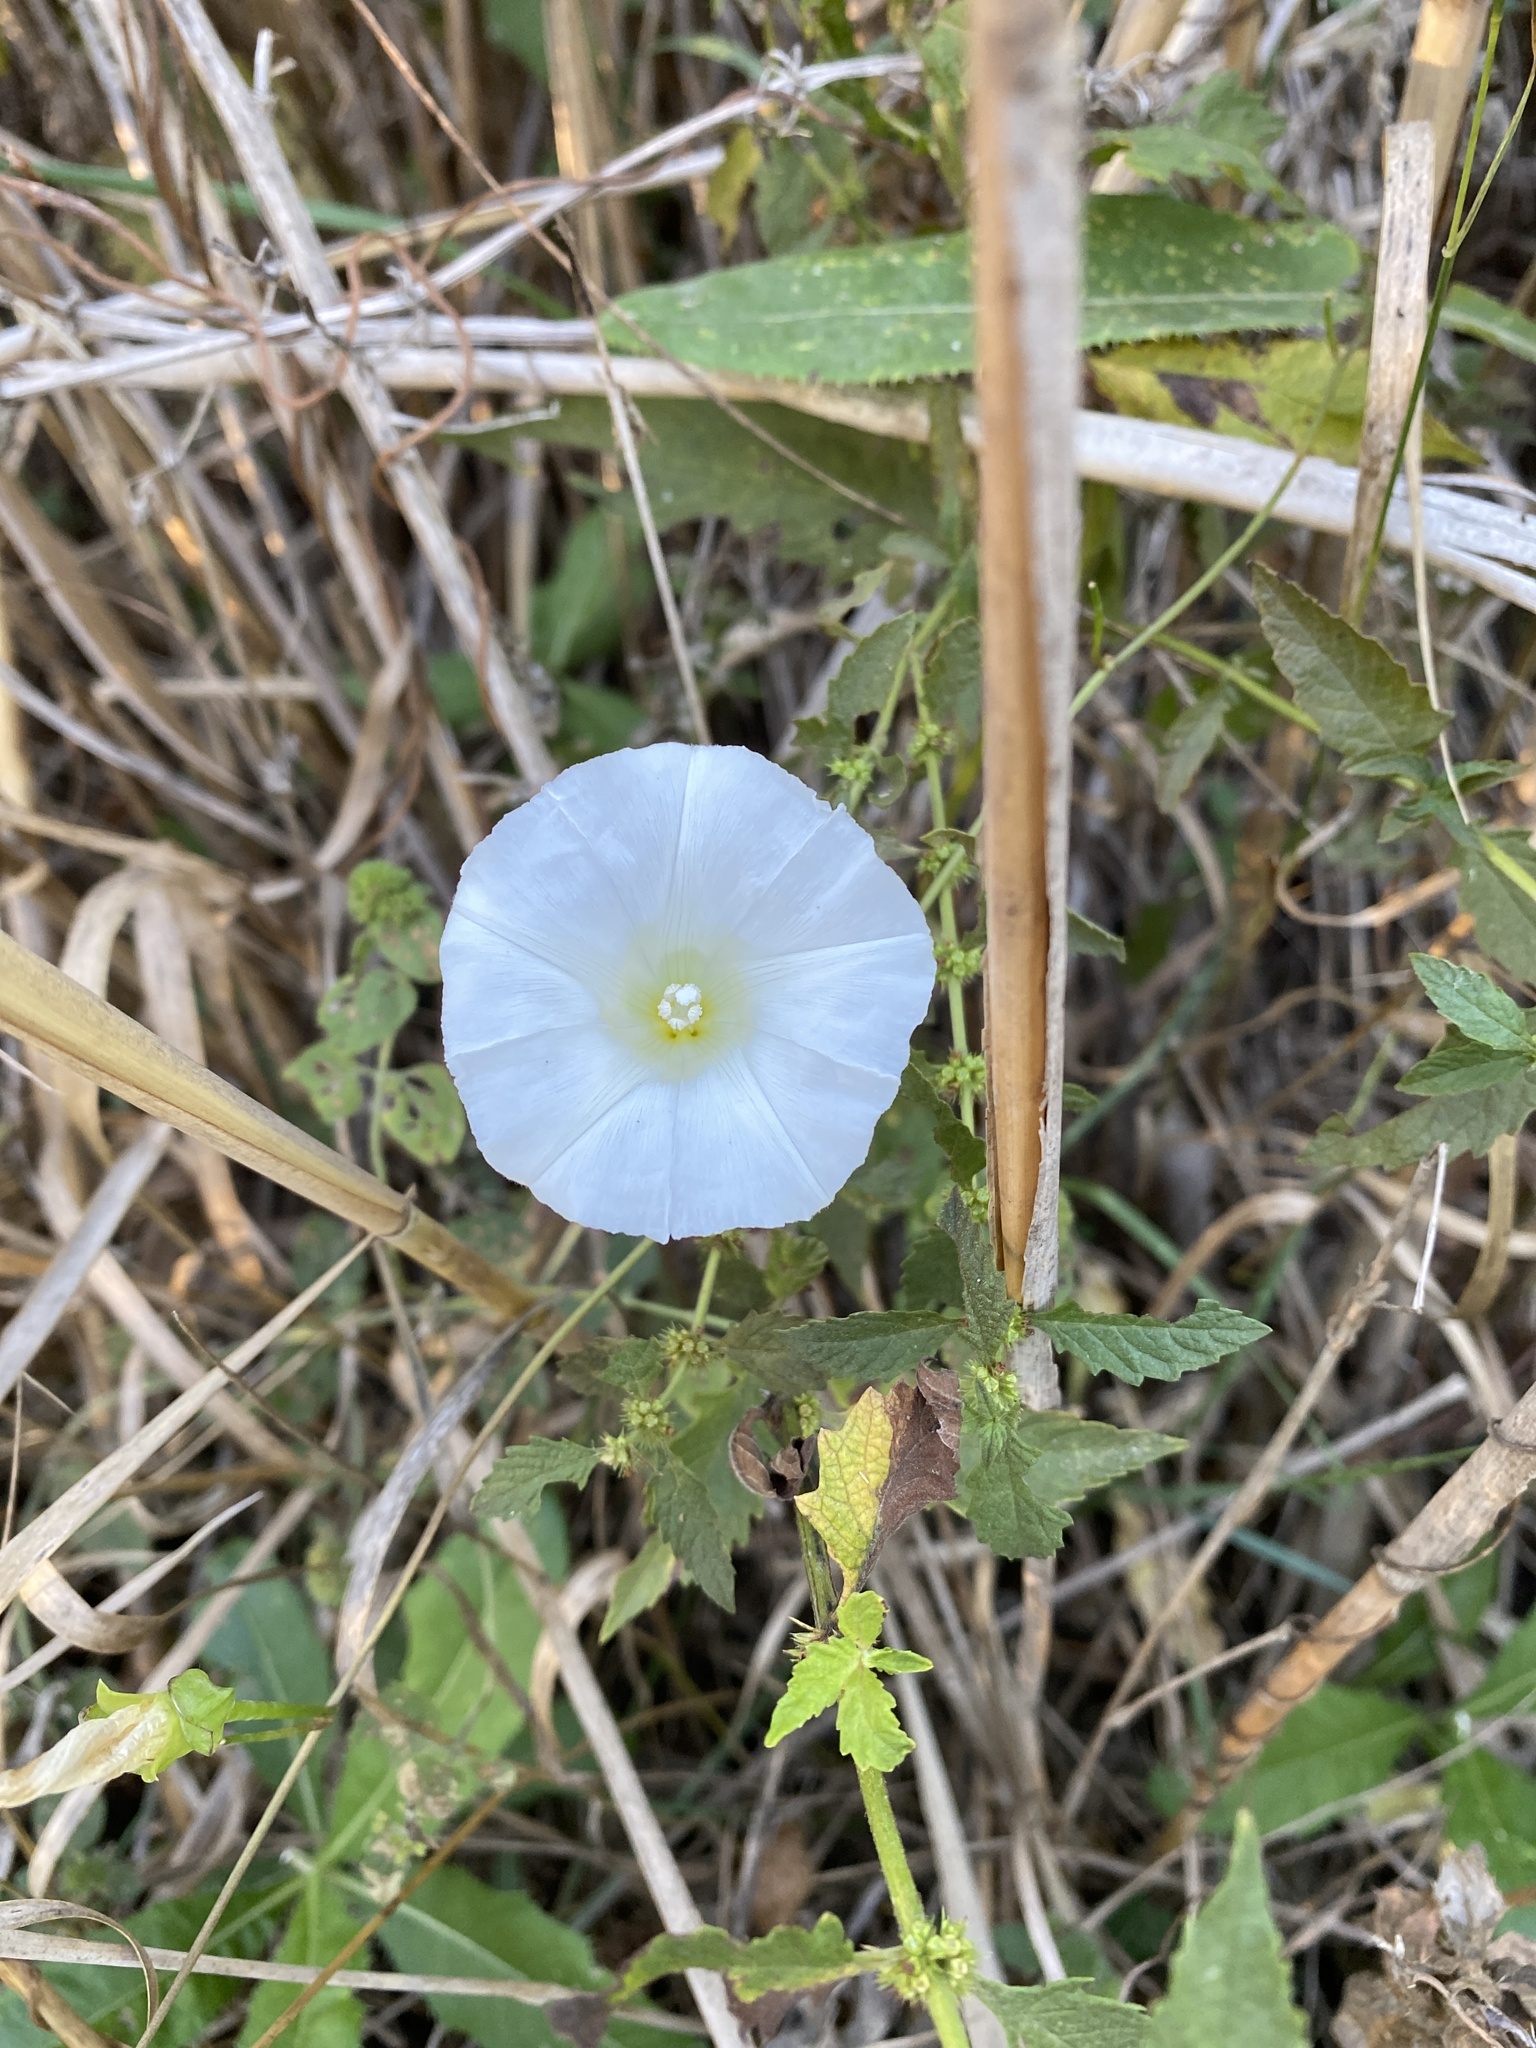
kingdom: Plantae
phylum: Tracheophyta
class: Magnoliopsida
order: Solanales
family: Convolvulaceae
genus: Calystegia
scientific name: Calystegia sepium
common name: Hedge bindweed
